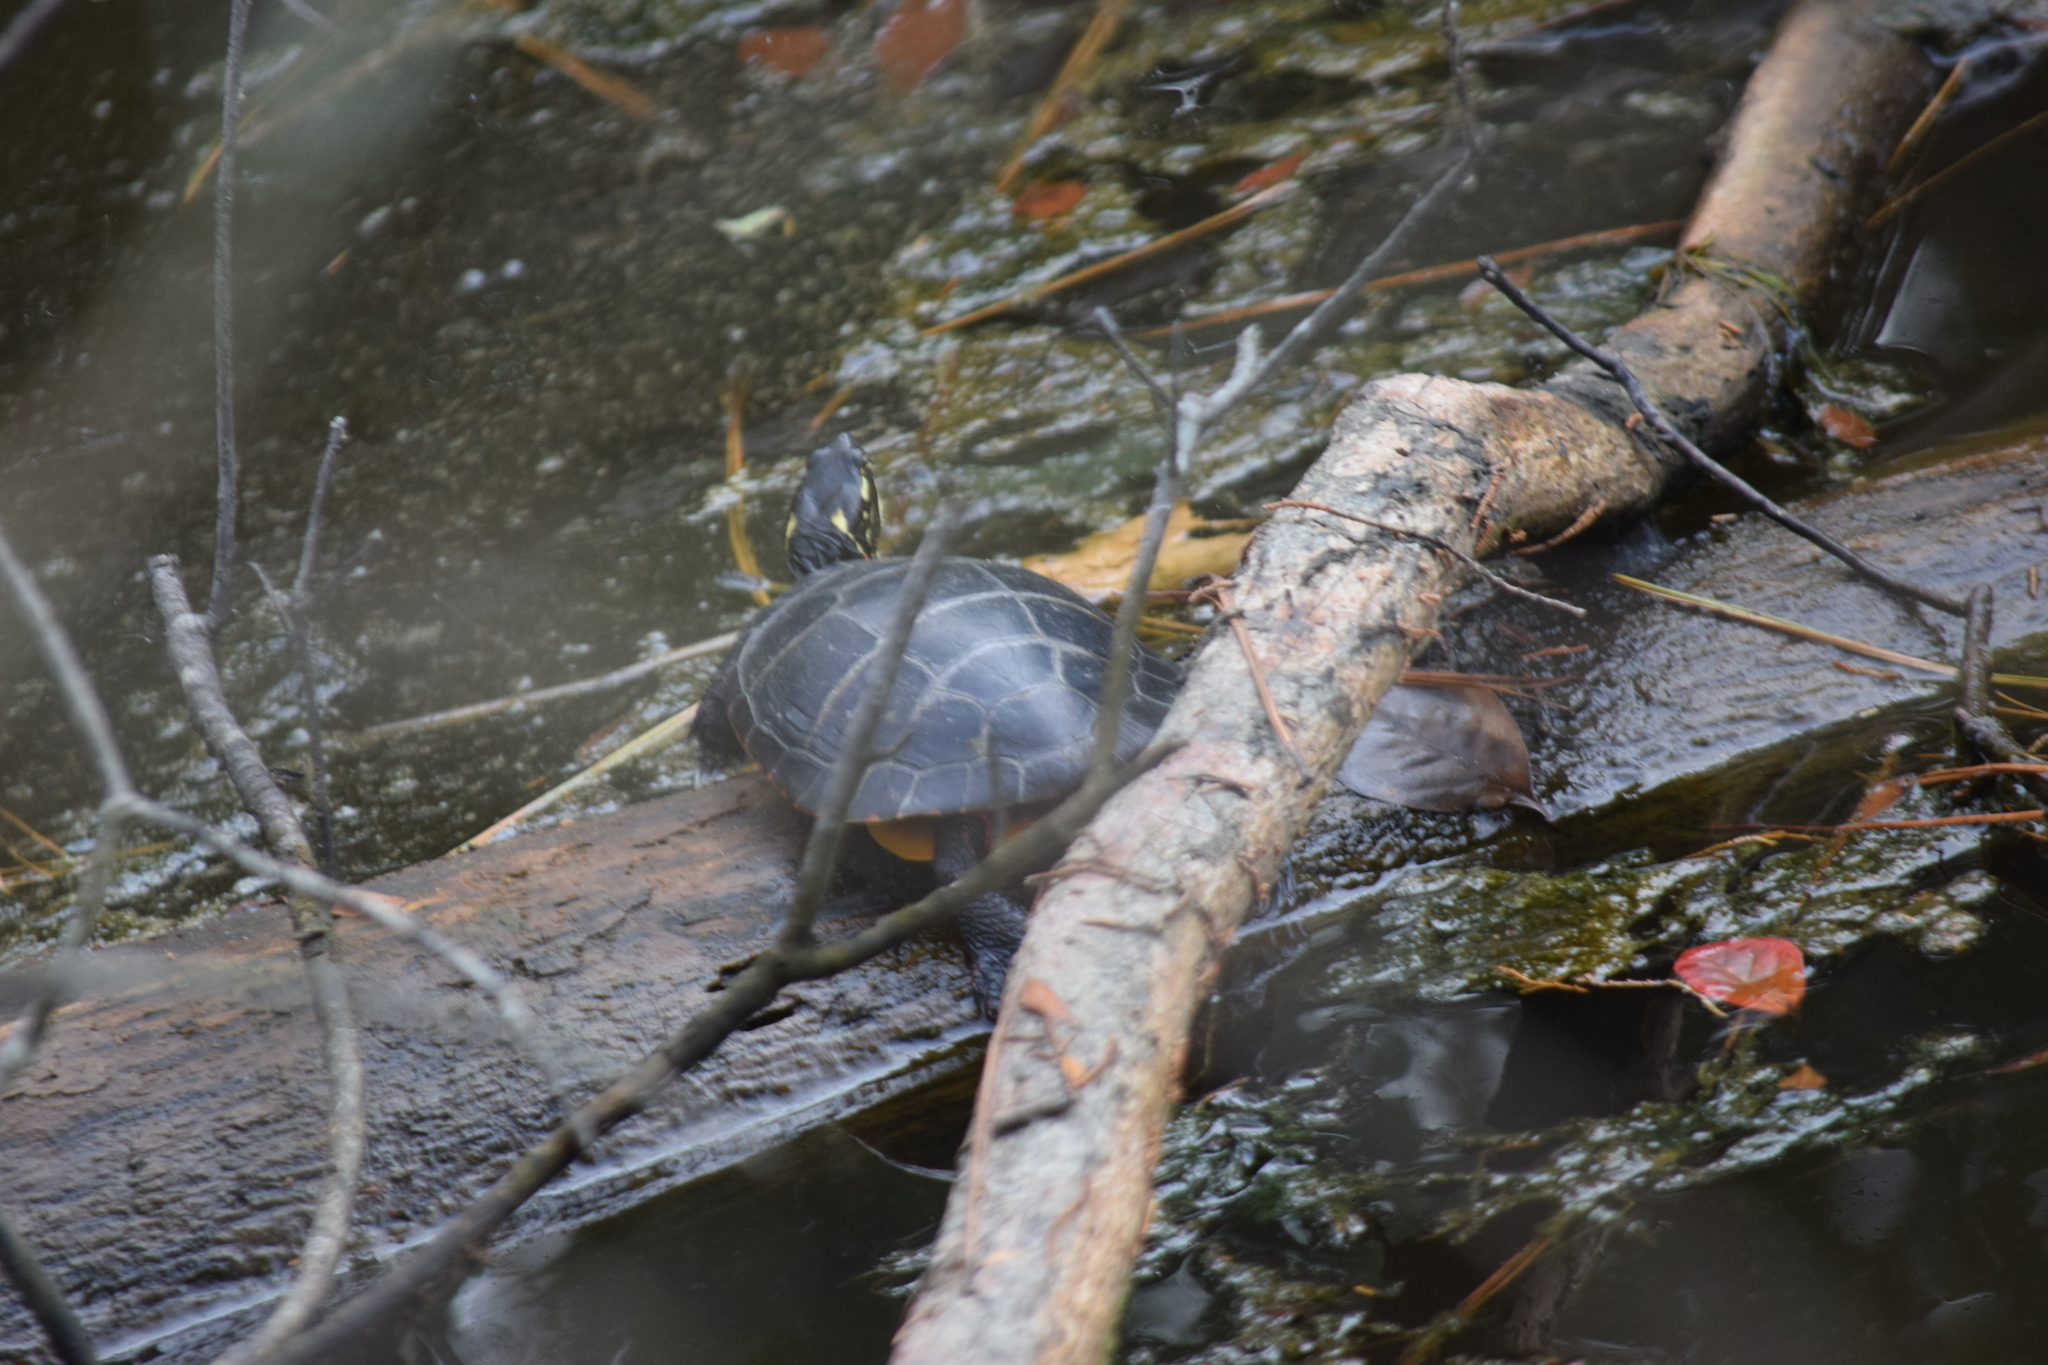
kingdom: Animalia
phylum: Chordata
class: Testudines
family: Emydidae
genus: Chrysemys
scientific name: Chrysemys picta
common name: Painted turtle
